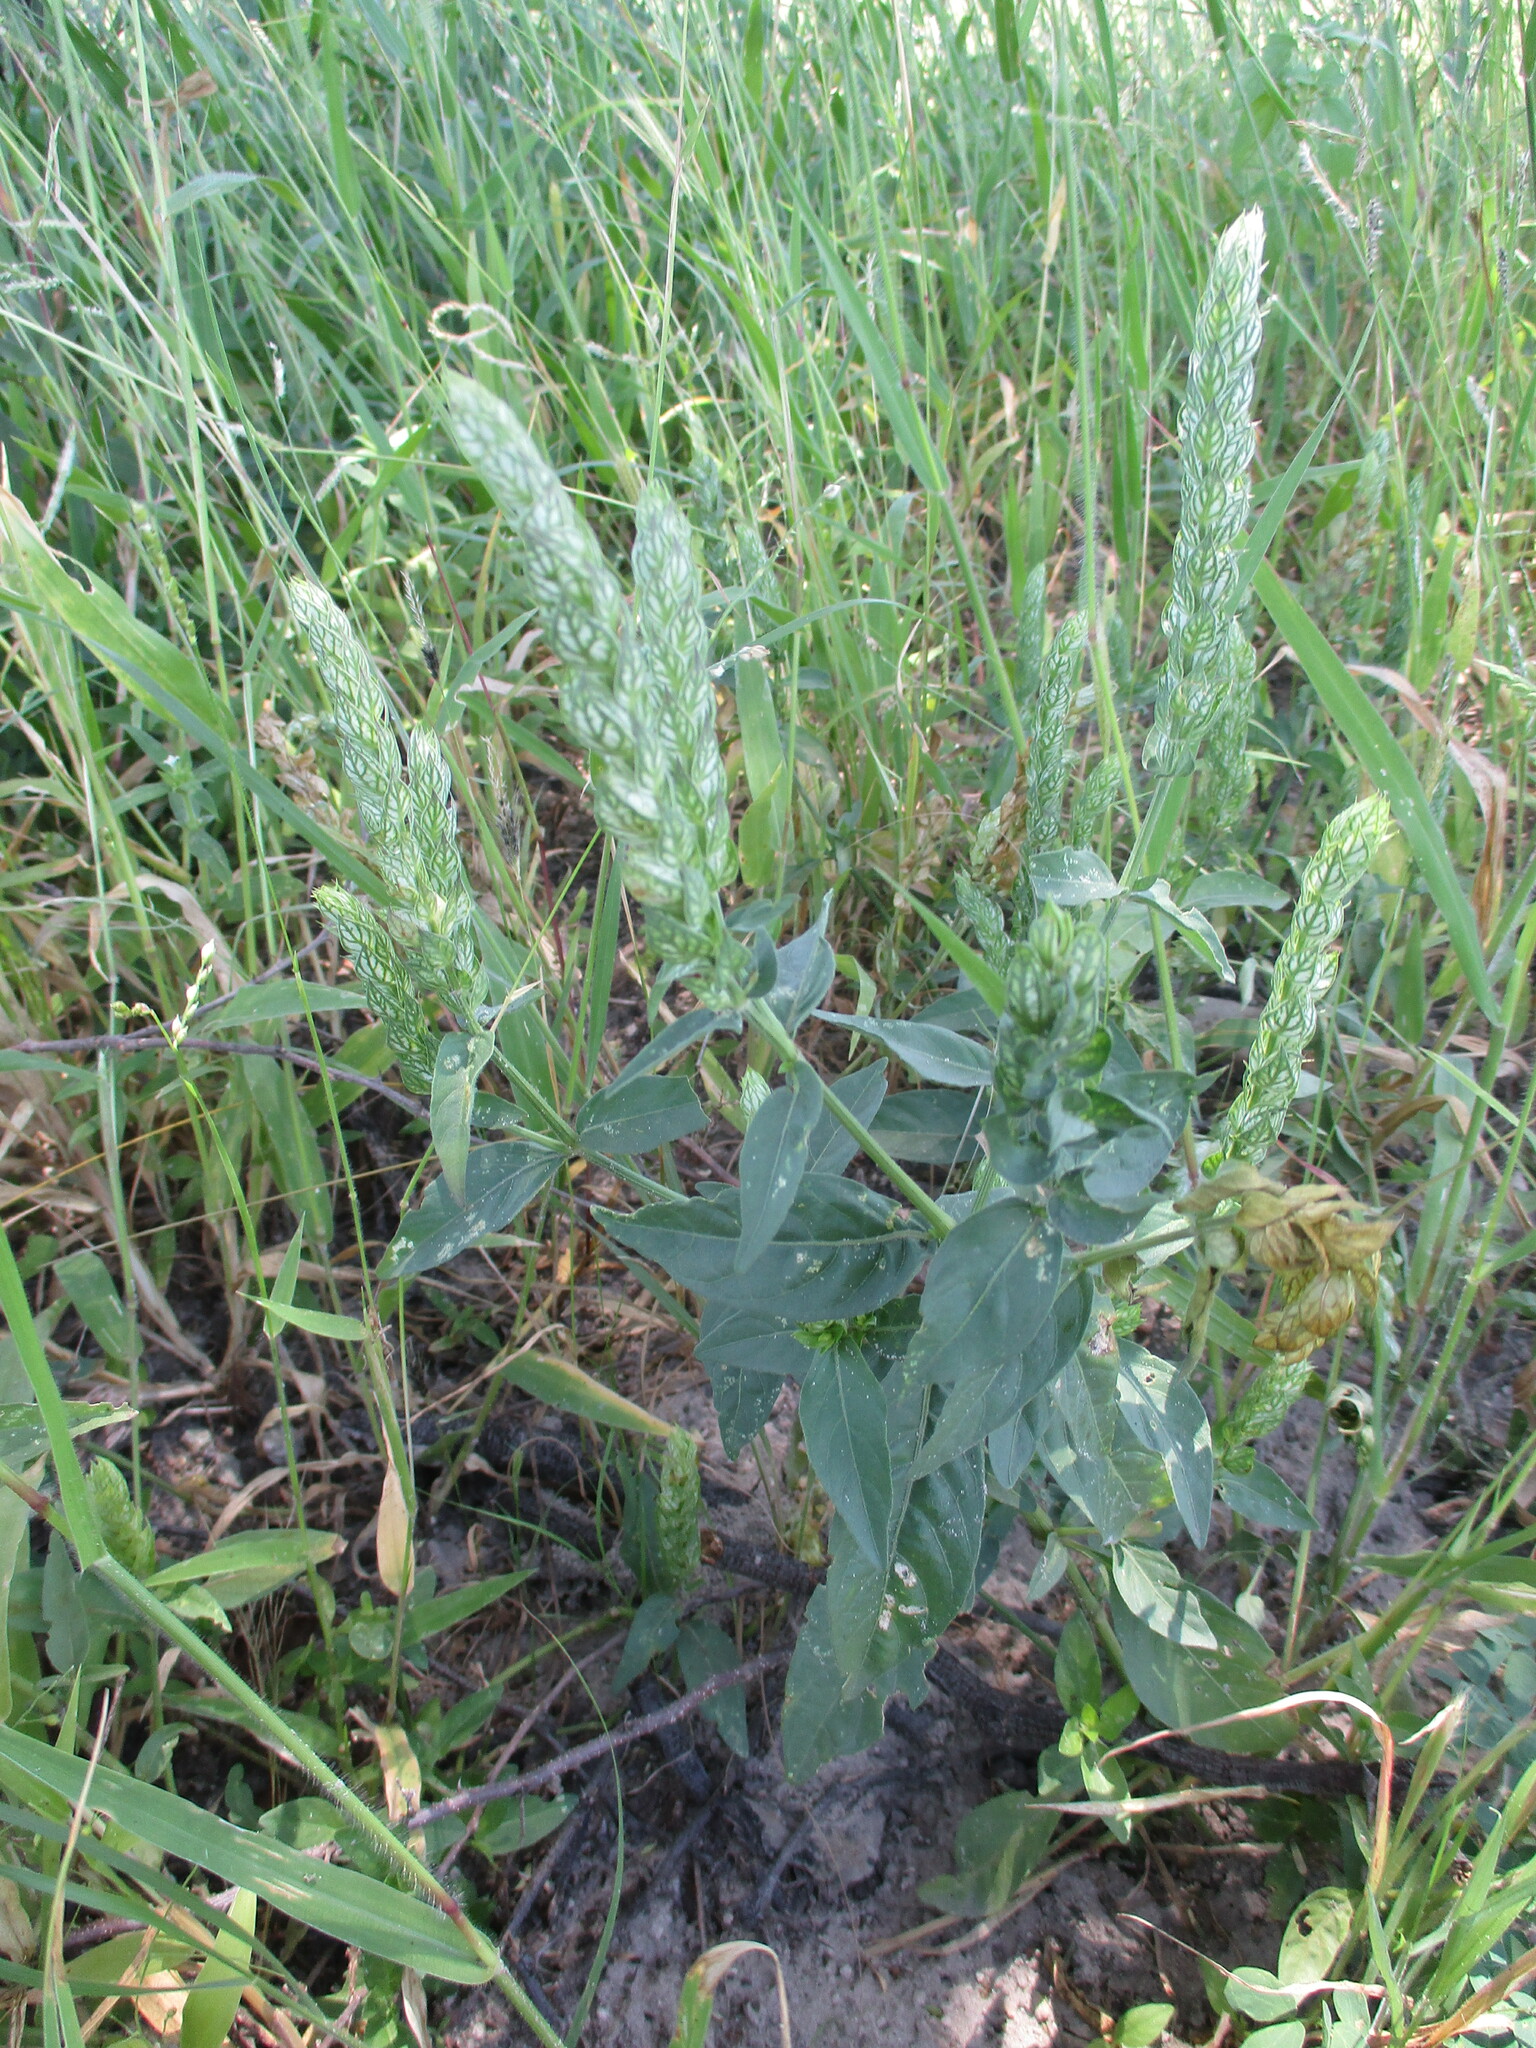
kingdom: Plantae
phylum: Tracheophyta
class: Magnoliopsida
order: Lamiales
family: Acanthaceae
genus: Justicia
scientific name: Justicia betonica
